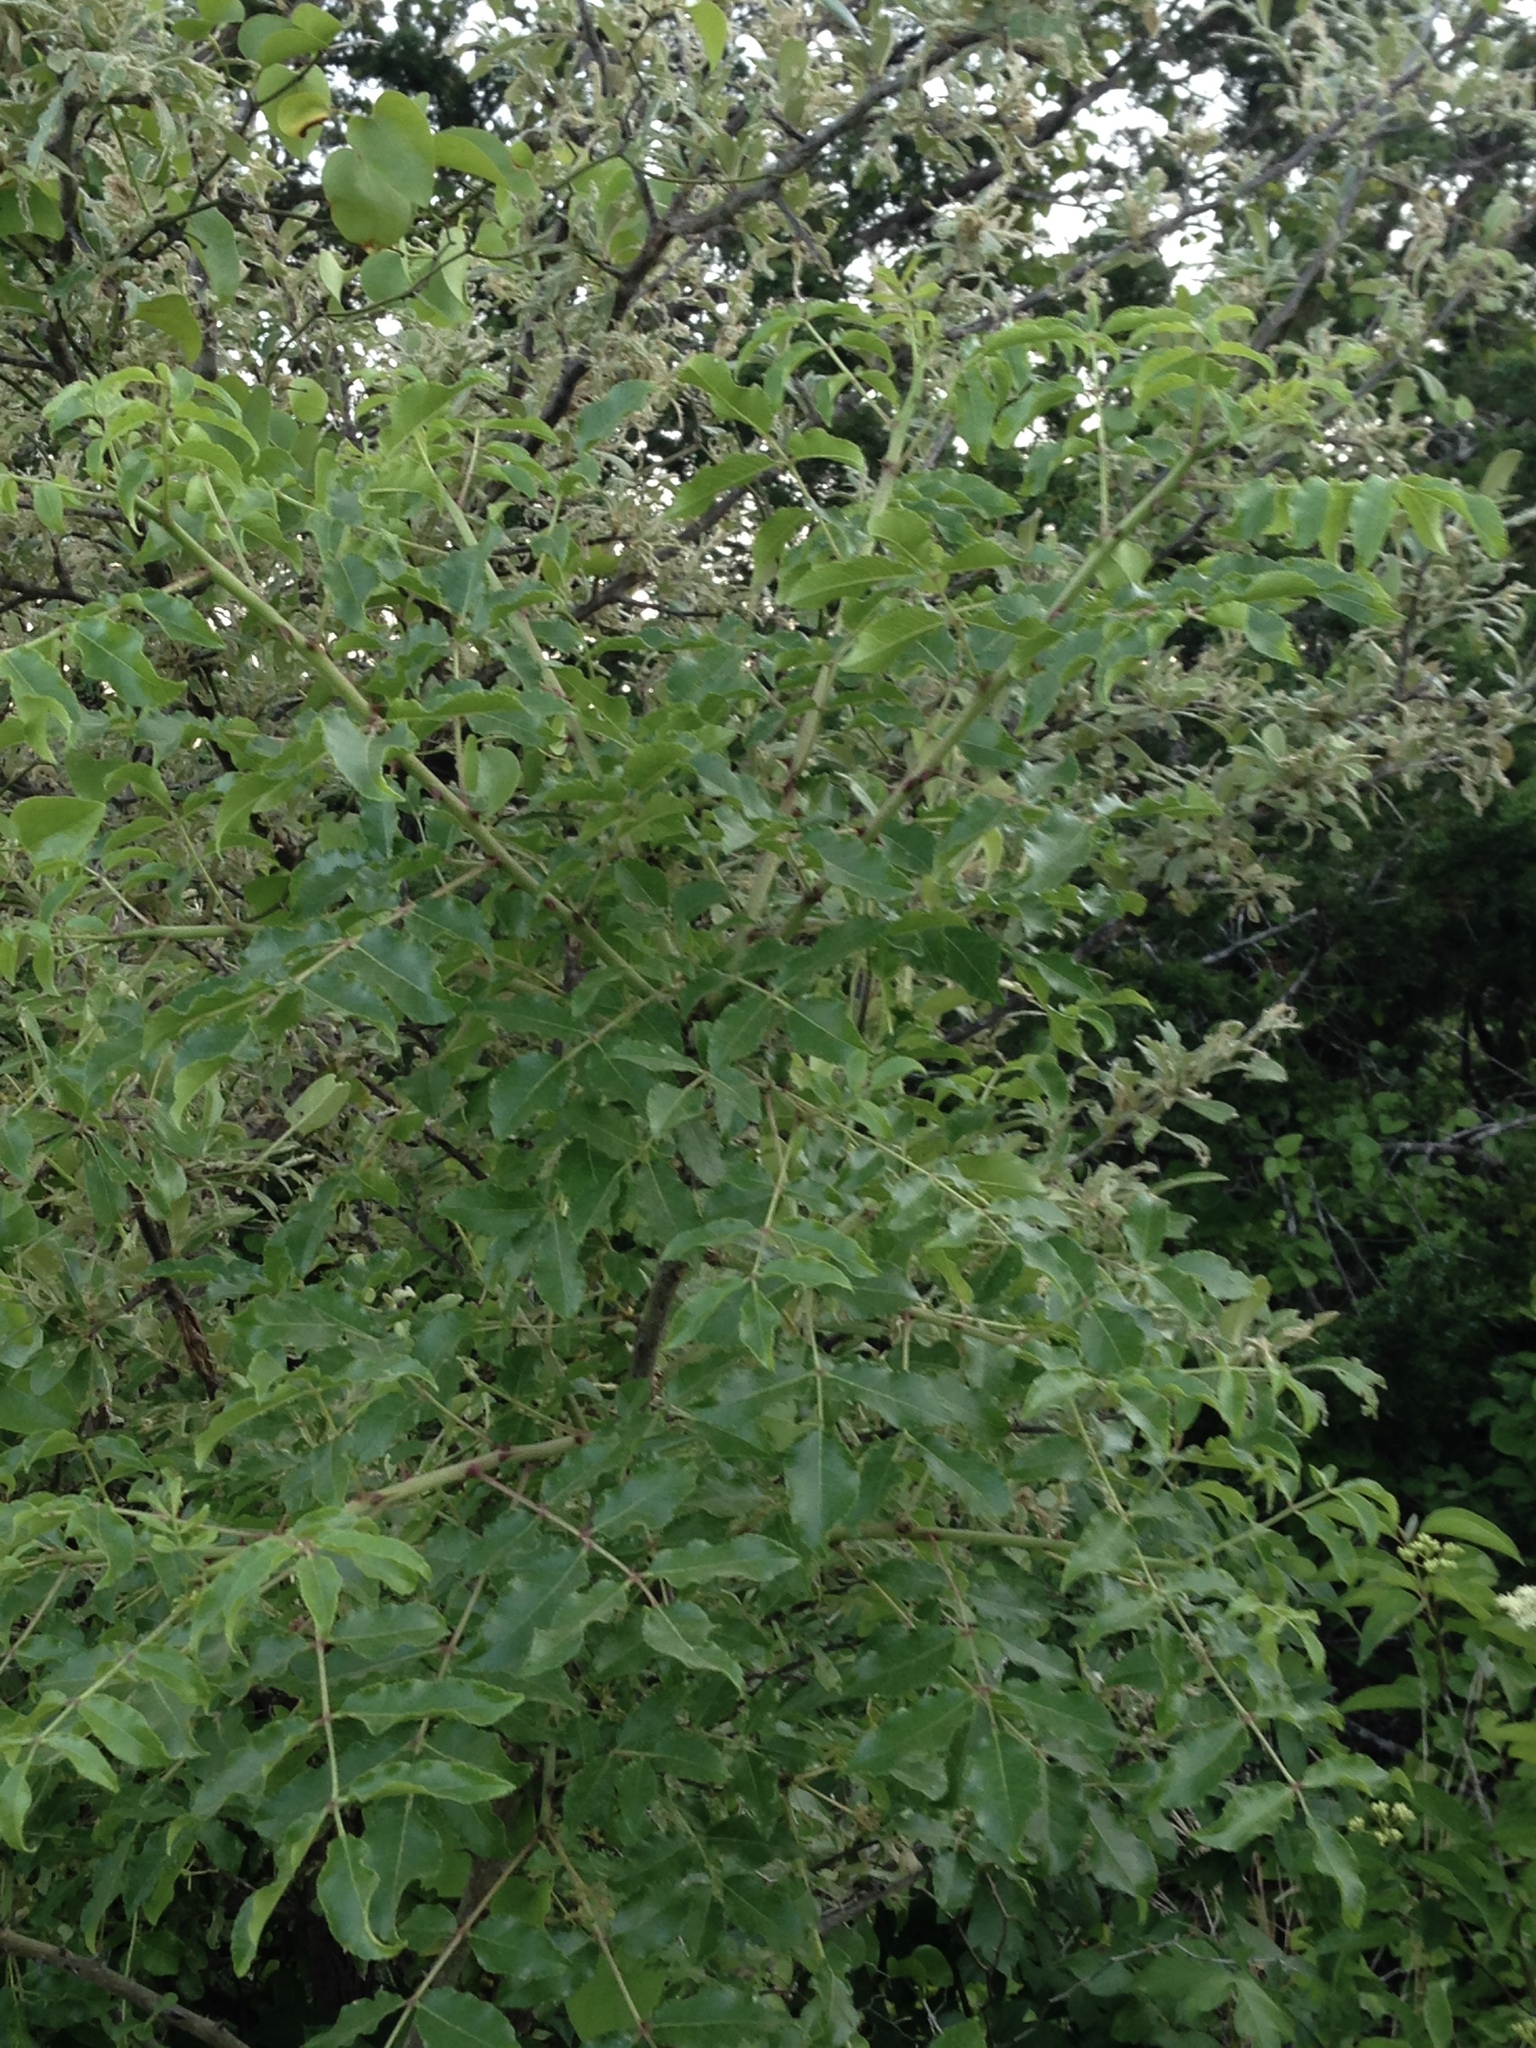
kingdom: Plantae
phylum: Tracheophyta
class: Magnoliopsida
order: Sapindales
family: Rutaceae
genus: Zanthoxylum
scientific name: Zanthoxylum clava-herculis
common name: Hercules'-club
